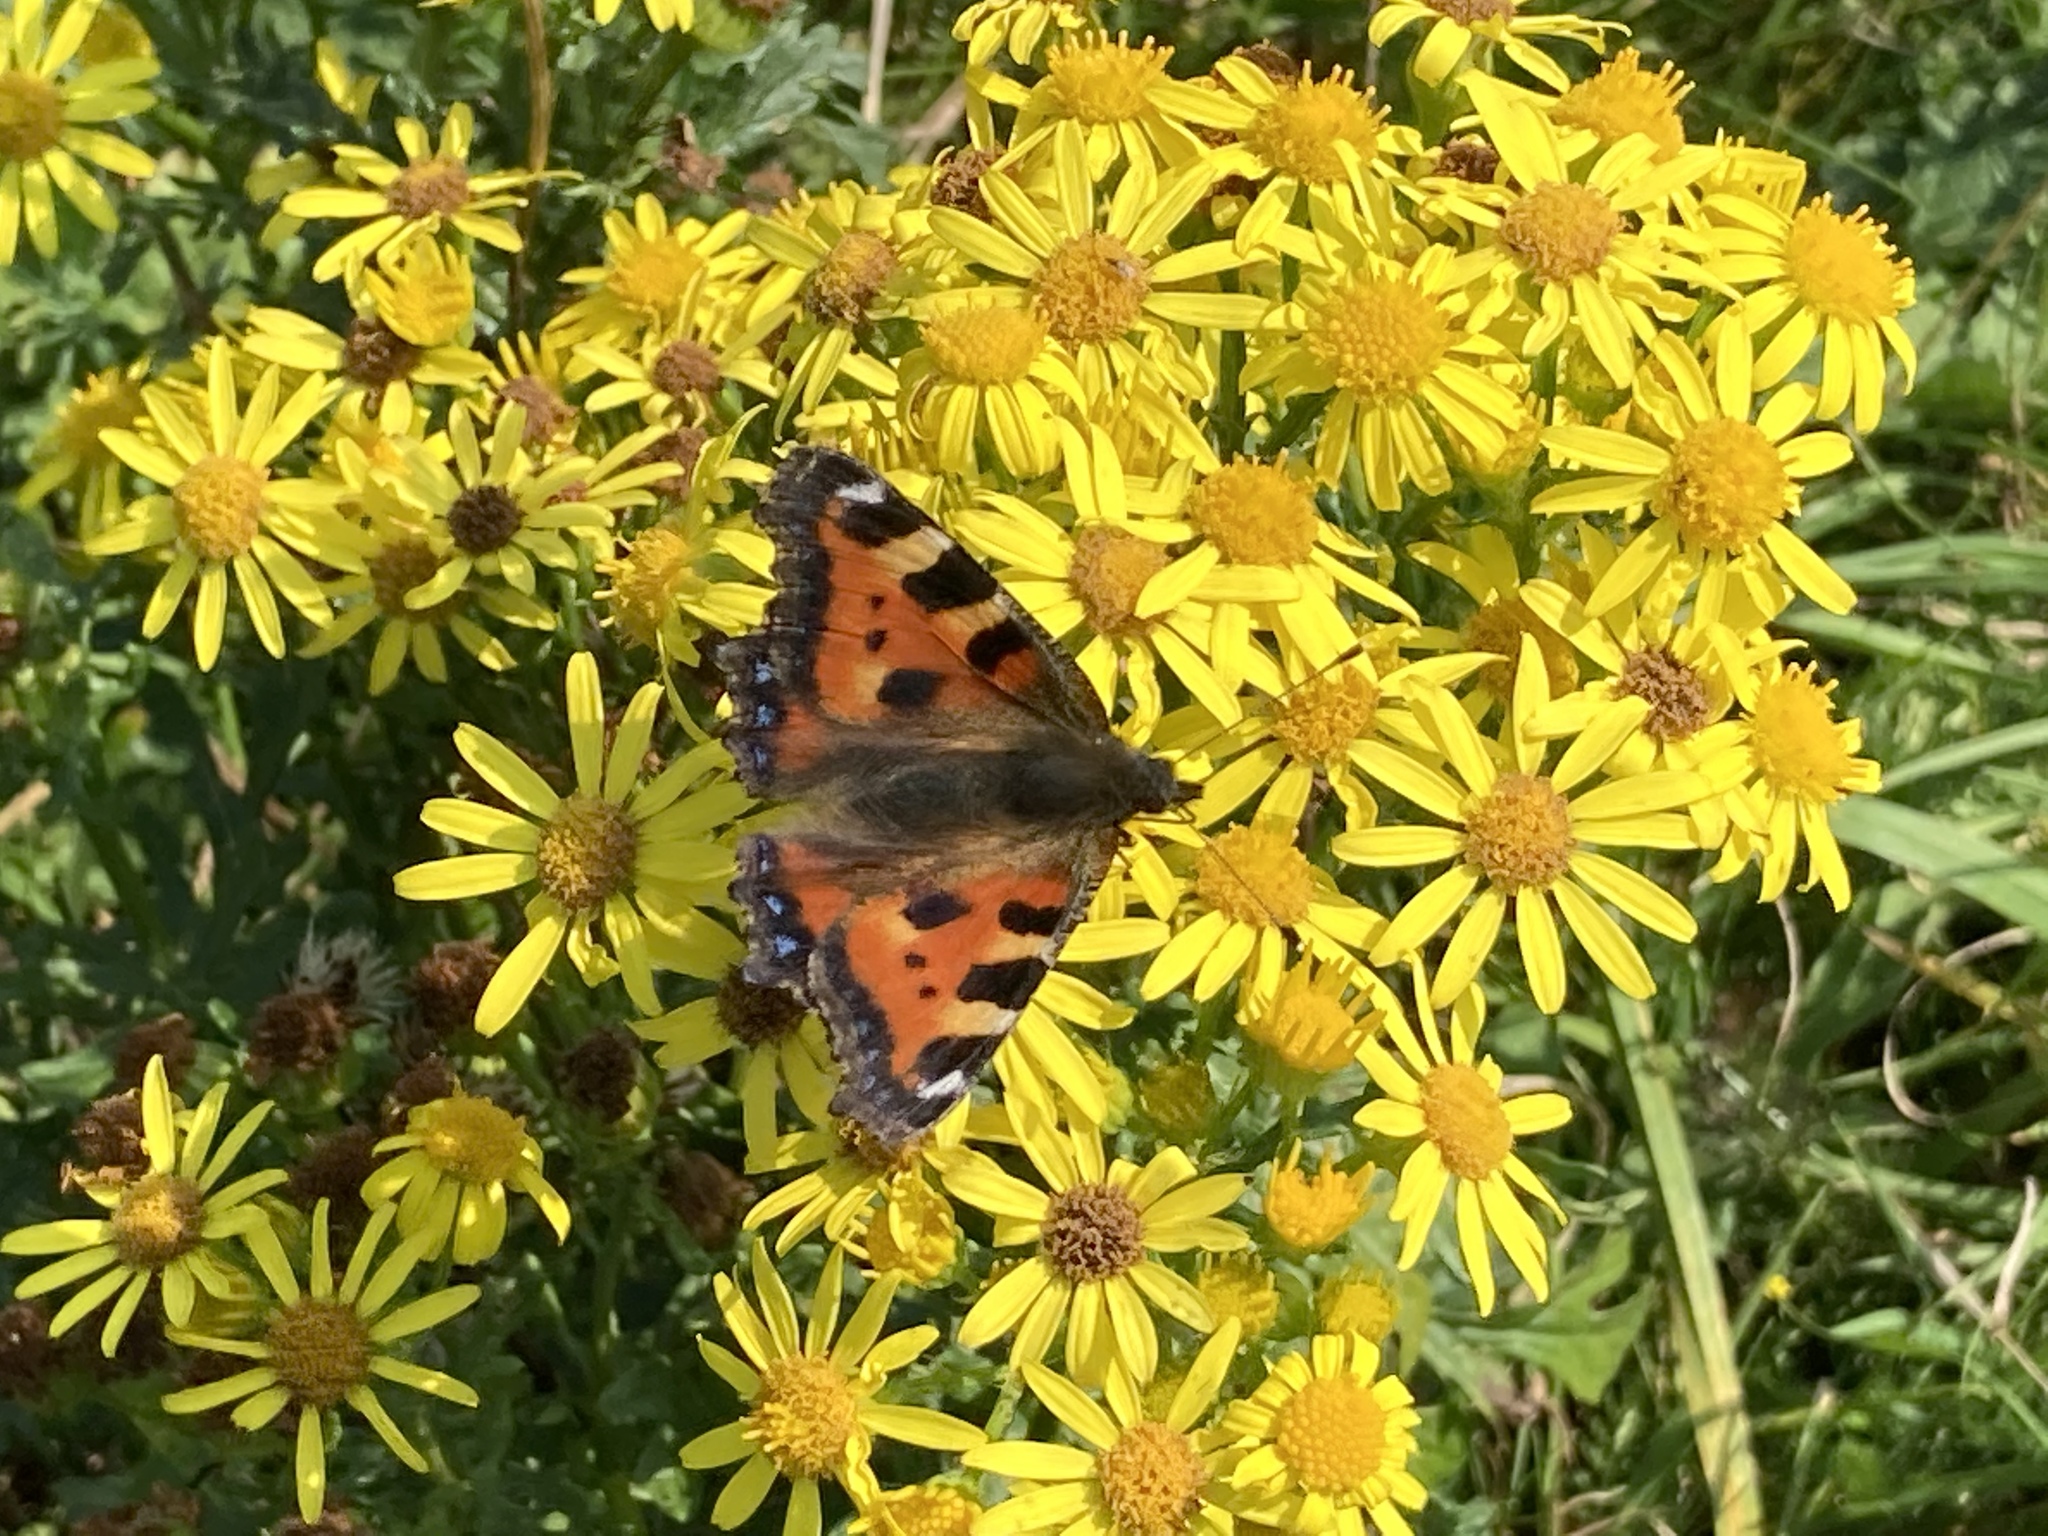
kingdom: Animalia
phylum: Arthropoda
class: Insecta
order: Lepidoptera
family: Nymphalidae
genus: Aglais
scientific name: Aglais urticae
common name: Small tortoiseshell
